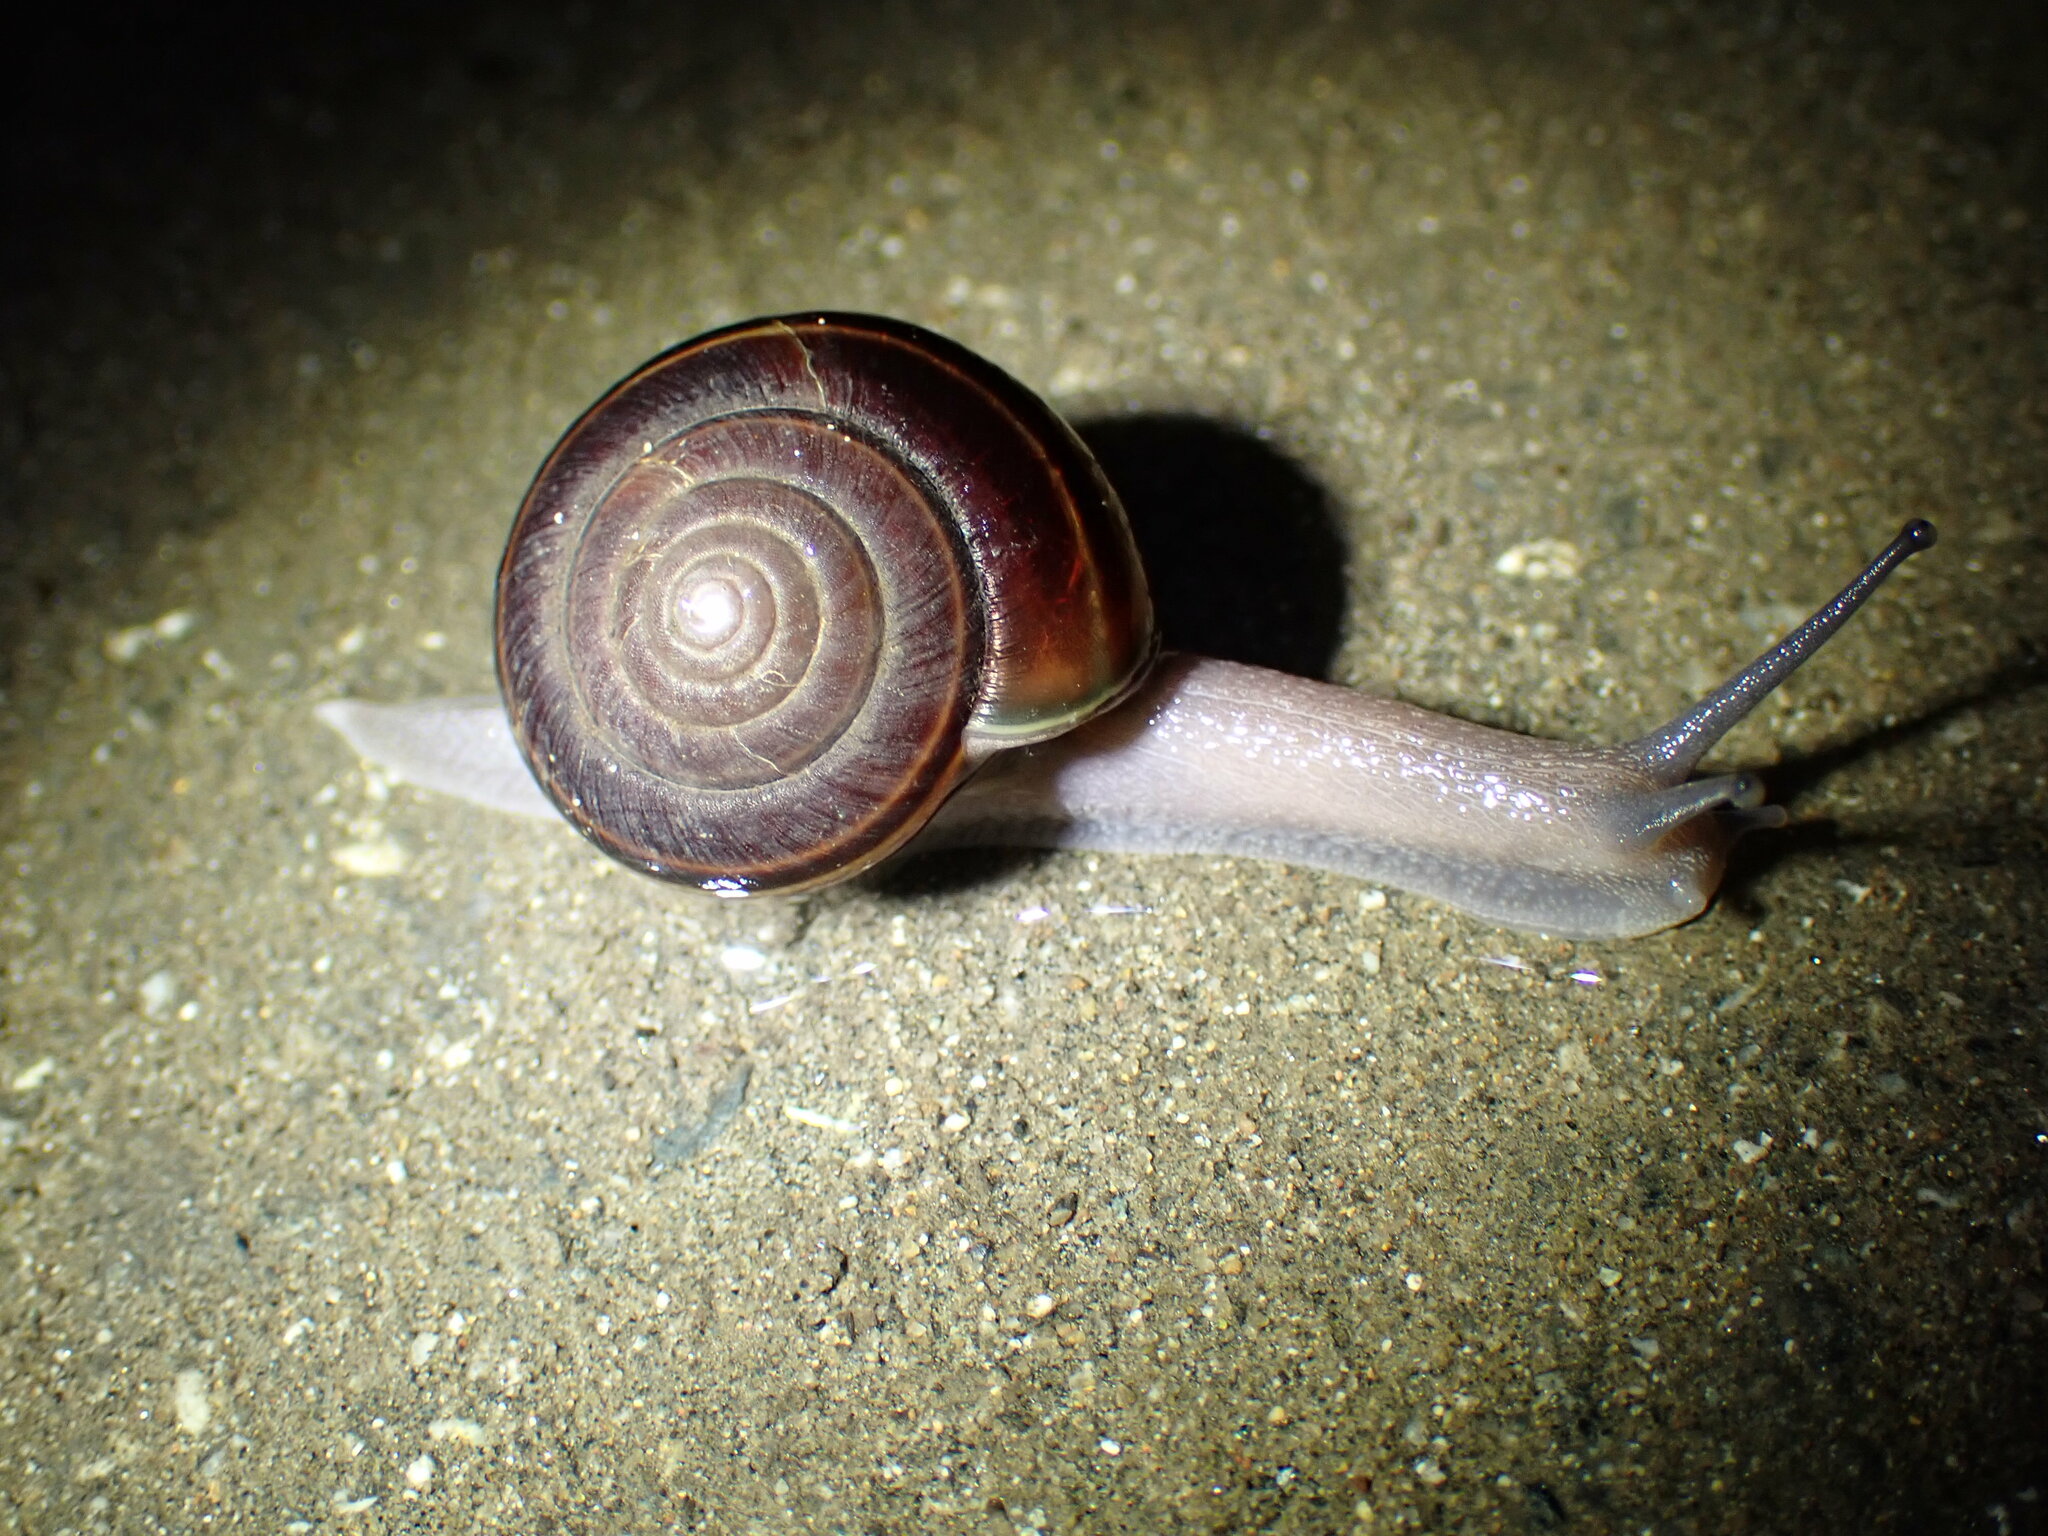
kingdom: Animalia
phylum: Mollusca
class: Gastropoda
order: Stylommatophora
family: Xanthonychidae
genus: Helminthoglypta
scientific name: Helminthoglypta sequoicola
